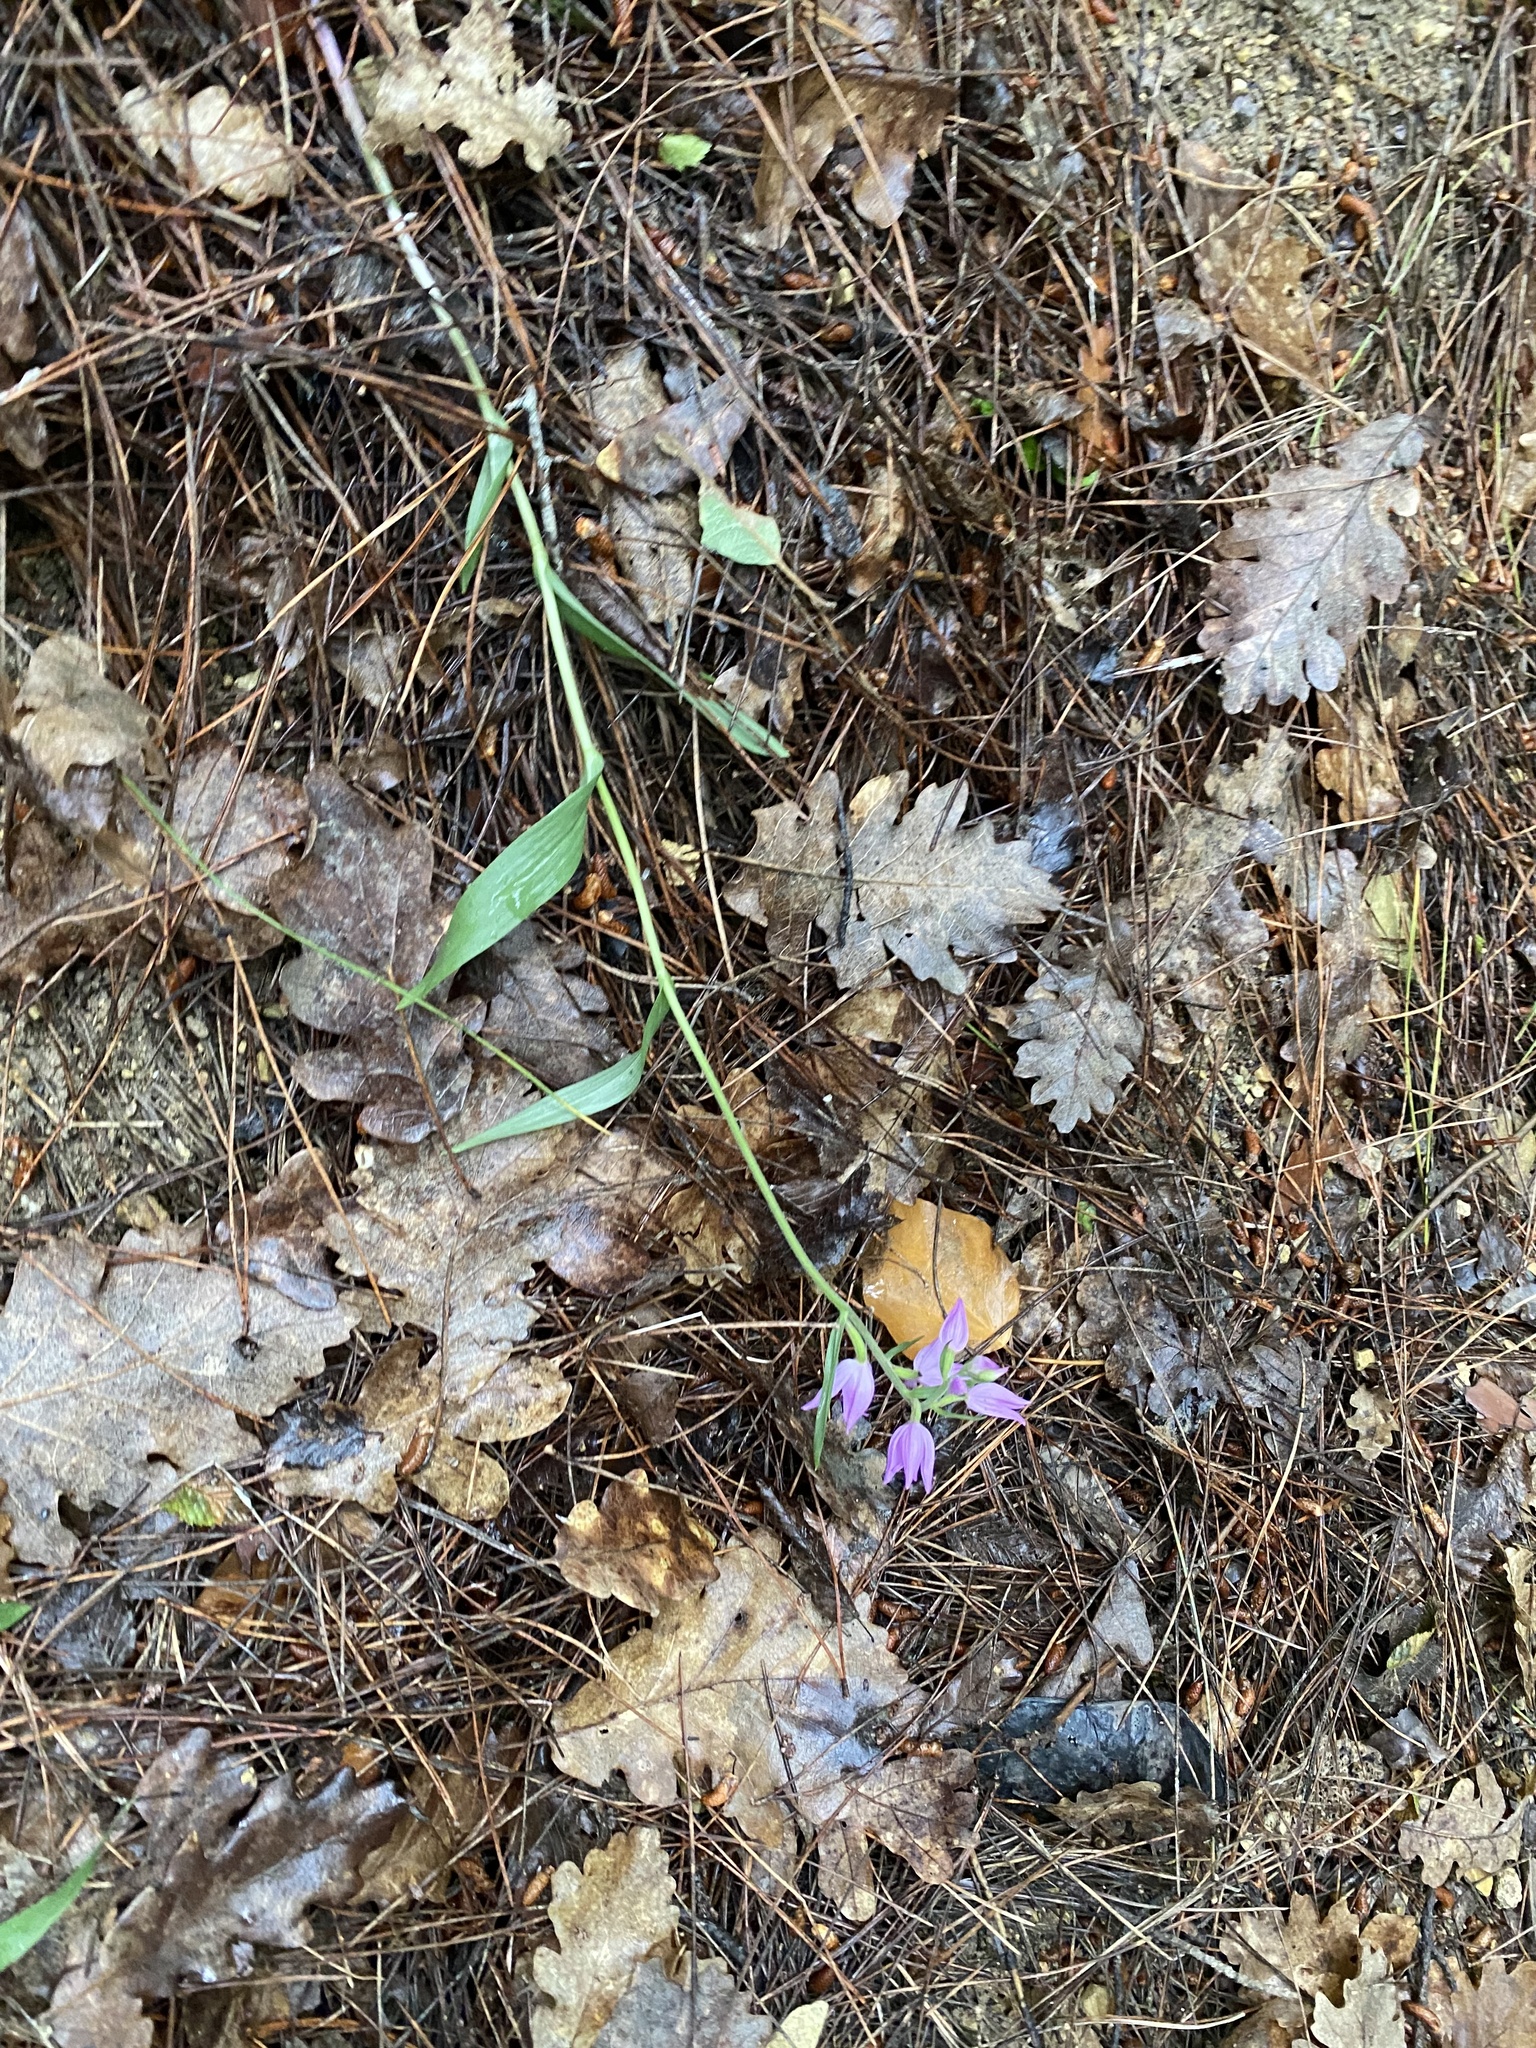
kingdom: Plantae
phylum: Tracheophyta
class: Liliopsida
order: Asparagales
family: Orchidaceae
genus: Cephalanthera
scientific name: Cephalanthera rubra
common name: Red helleborine
